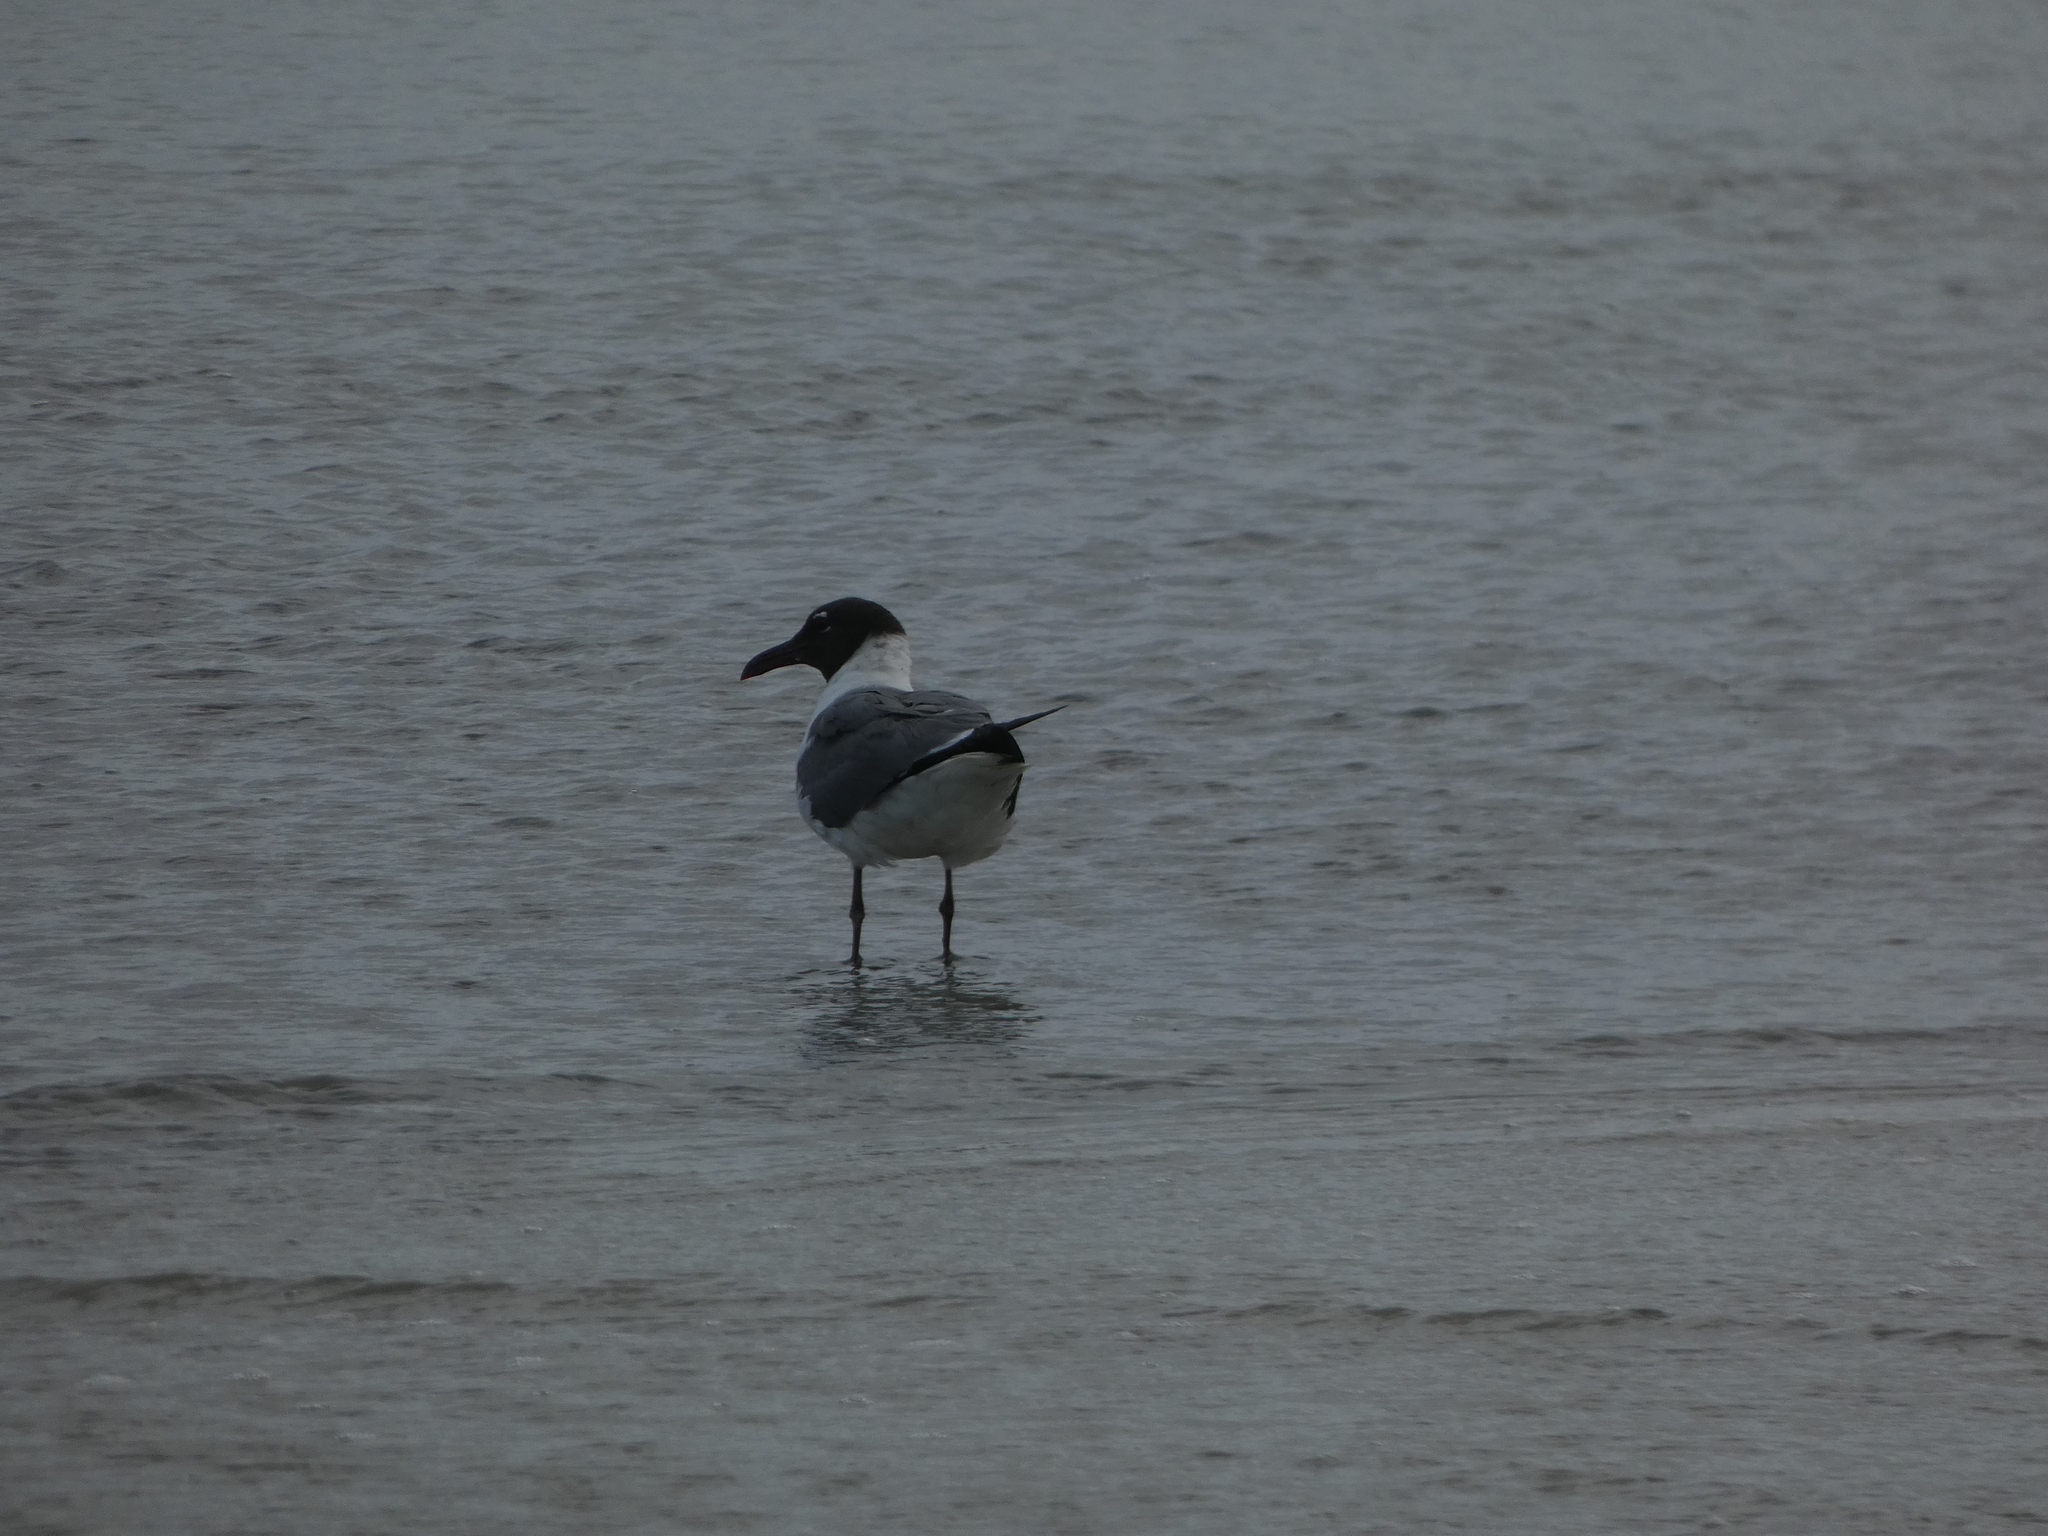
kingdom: Animalia
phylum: Chordata
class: Aves
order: Charadriiformes
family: Laridae
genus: Leucophaeus
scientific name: Leucophaeus atricilla
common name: Laughing gull
